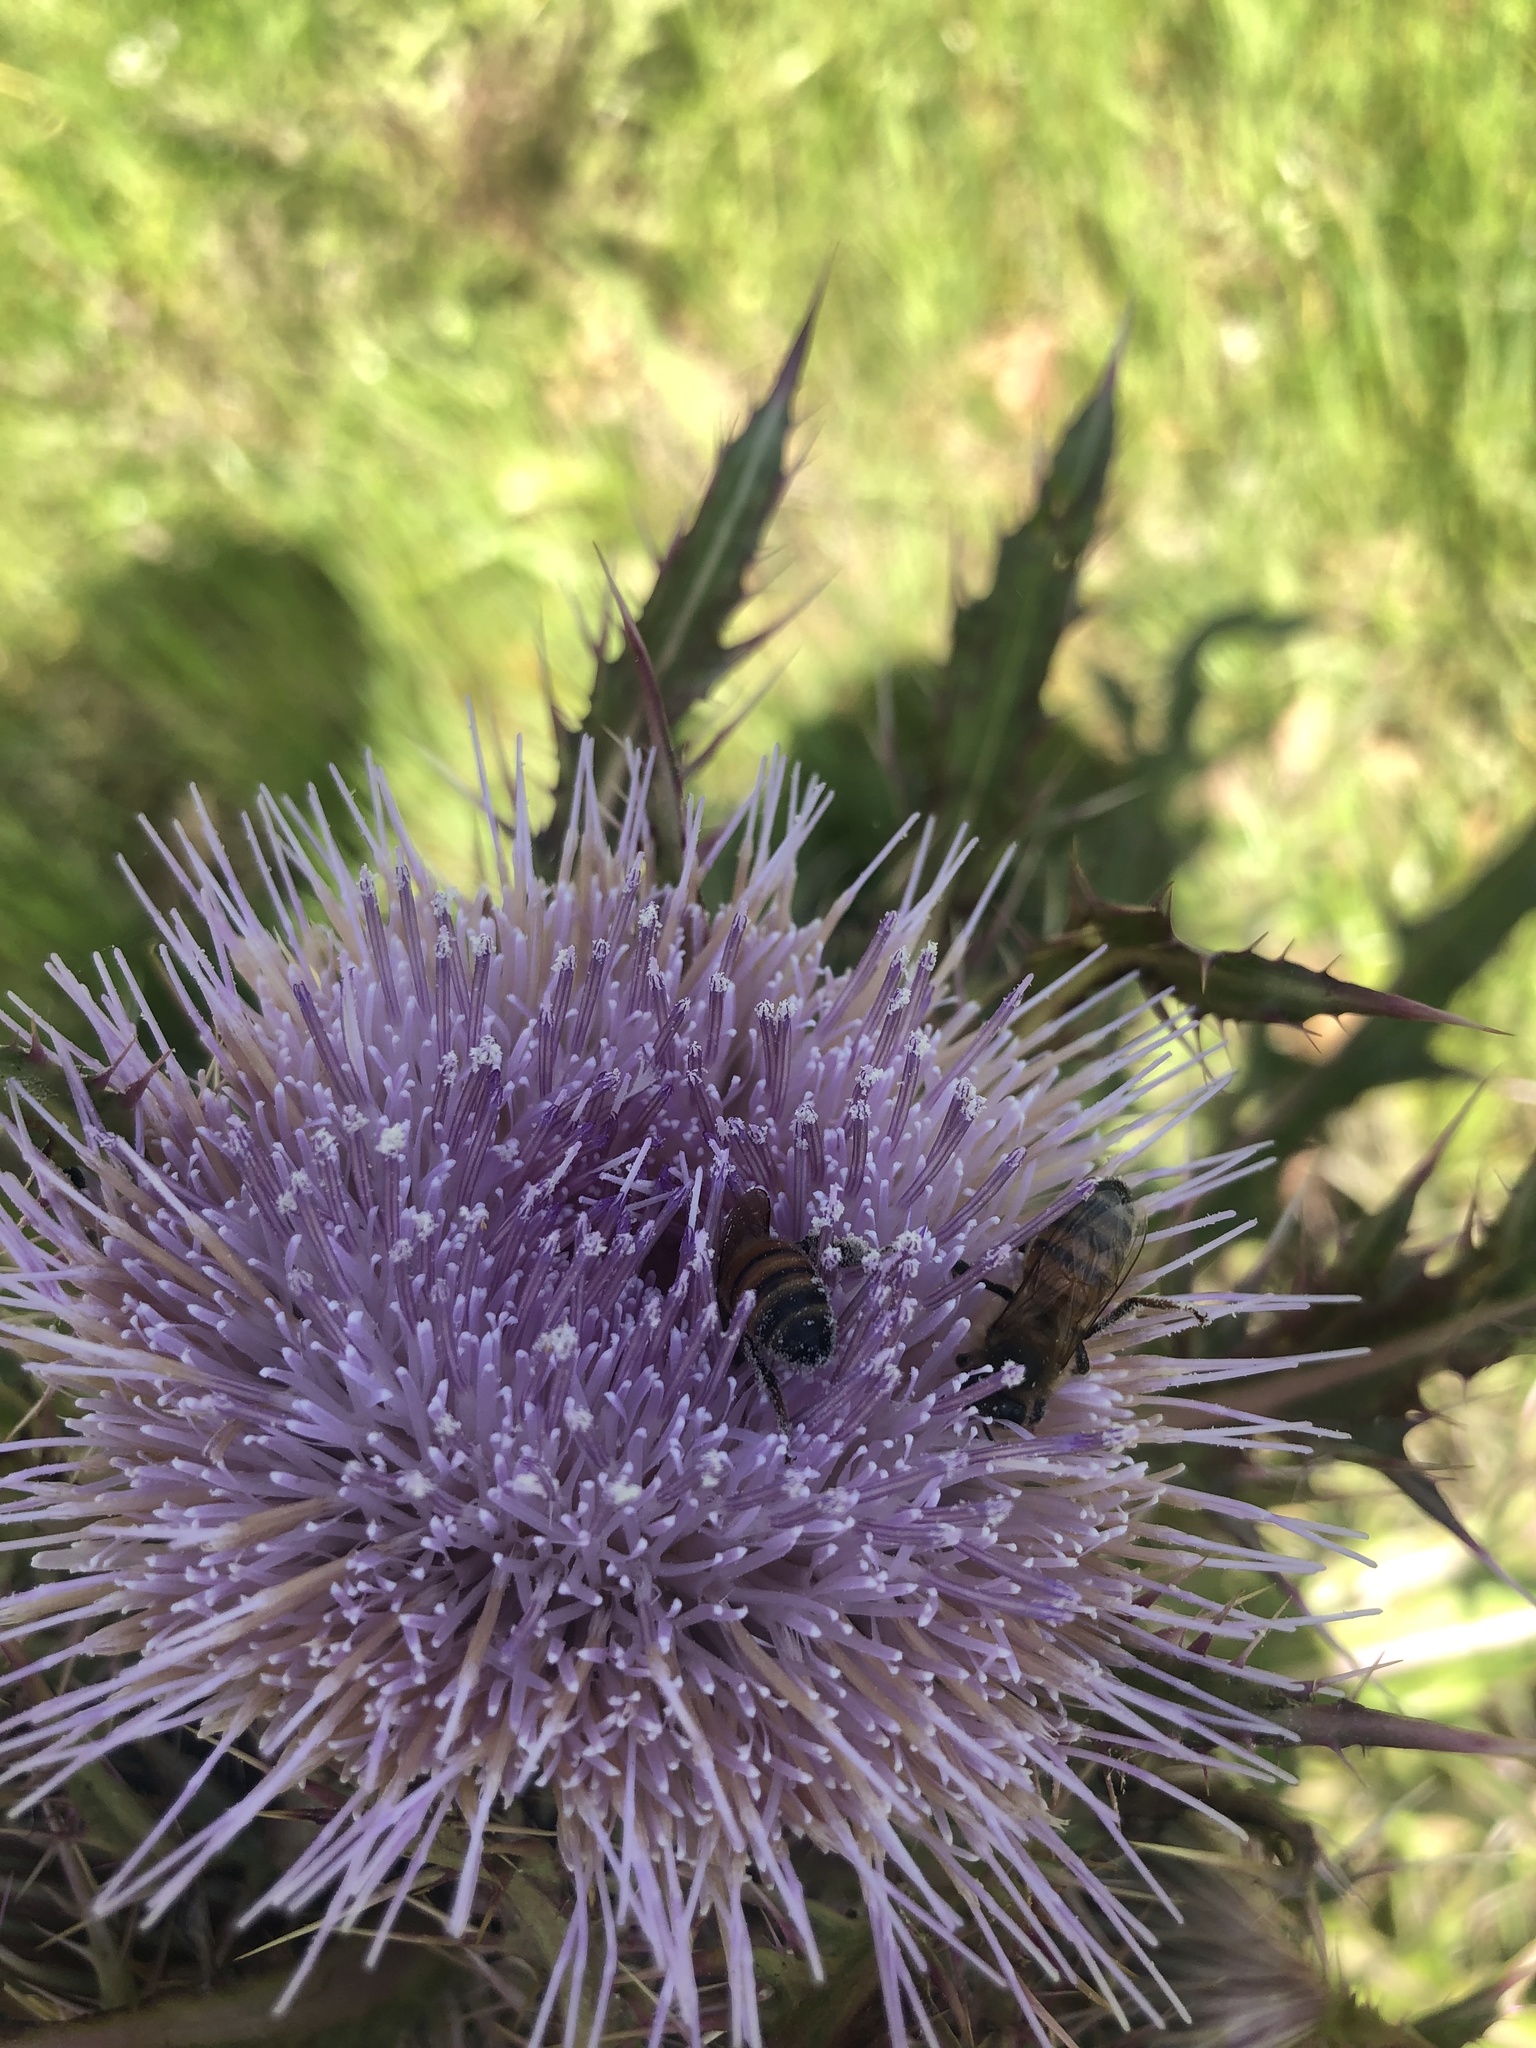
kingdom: Animalia
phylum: Arthropoda
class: Insecta
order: Hymenoptera
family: Apidae
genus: Apis
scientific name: Apis mellifera
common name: Honey bee
